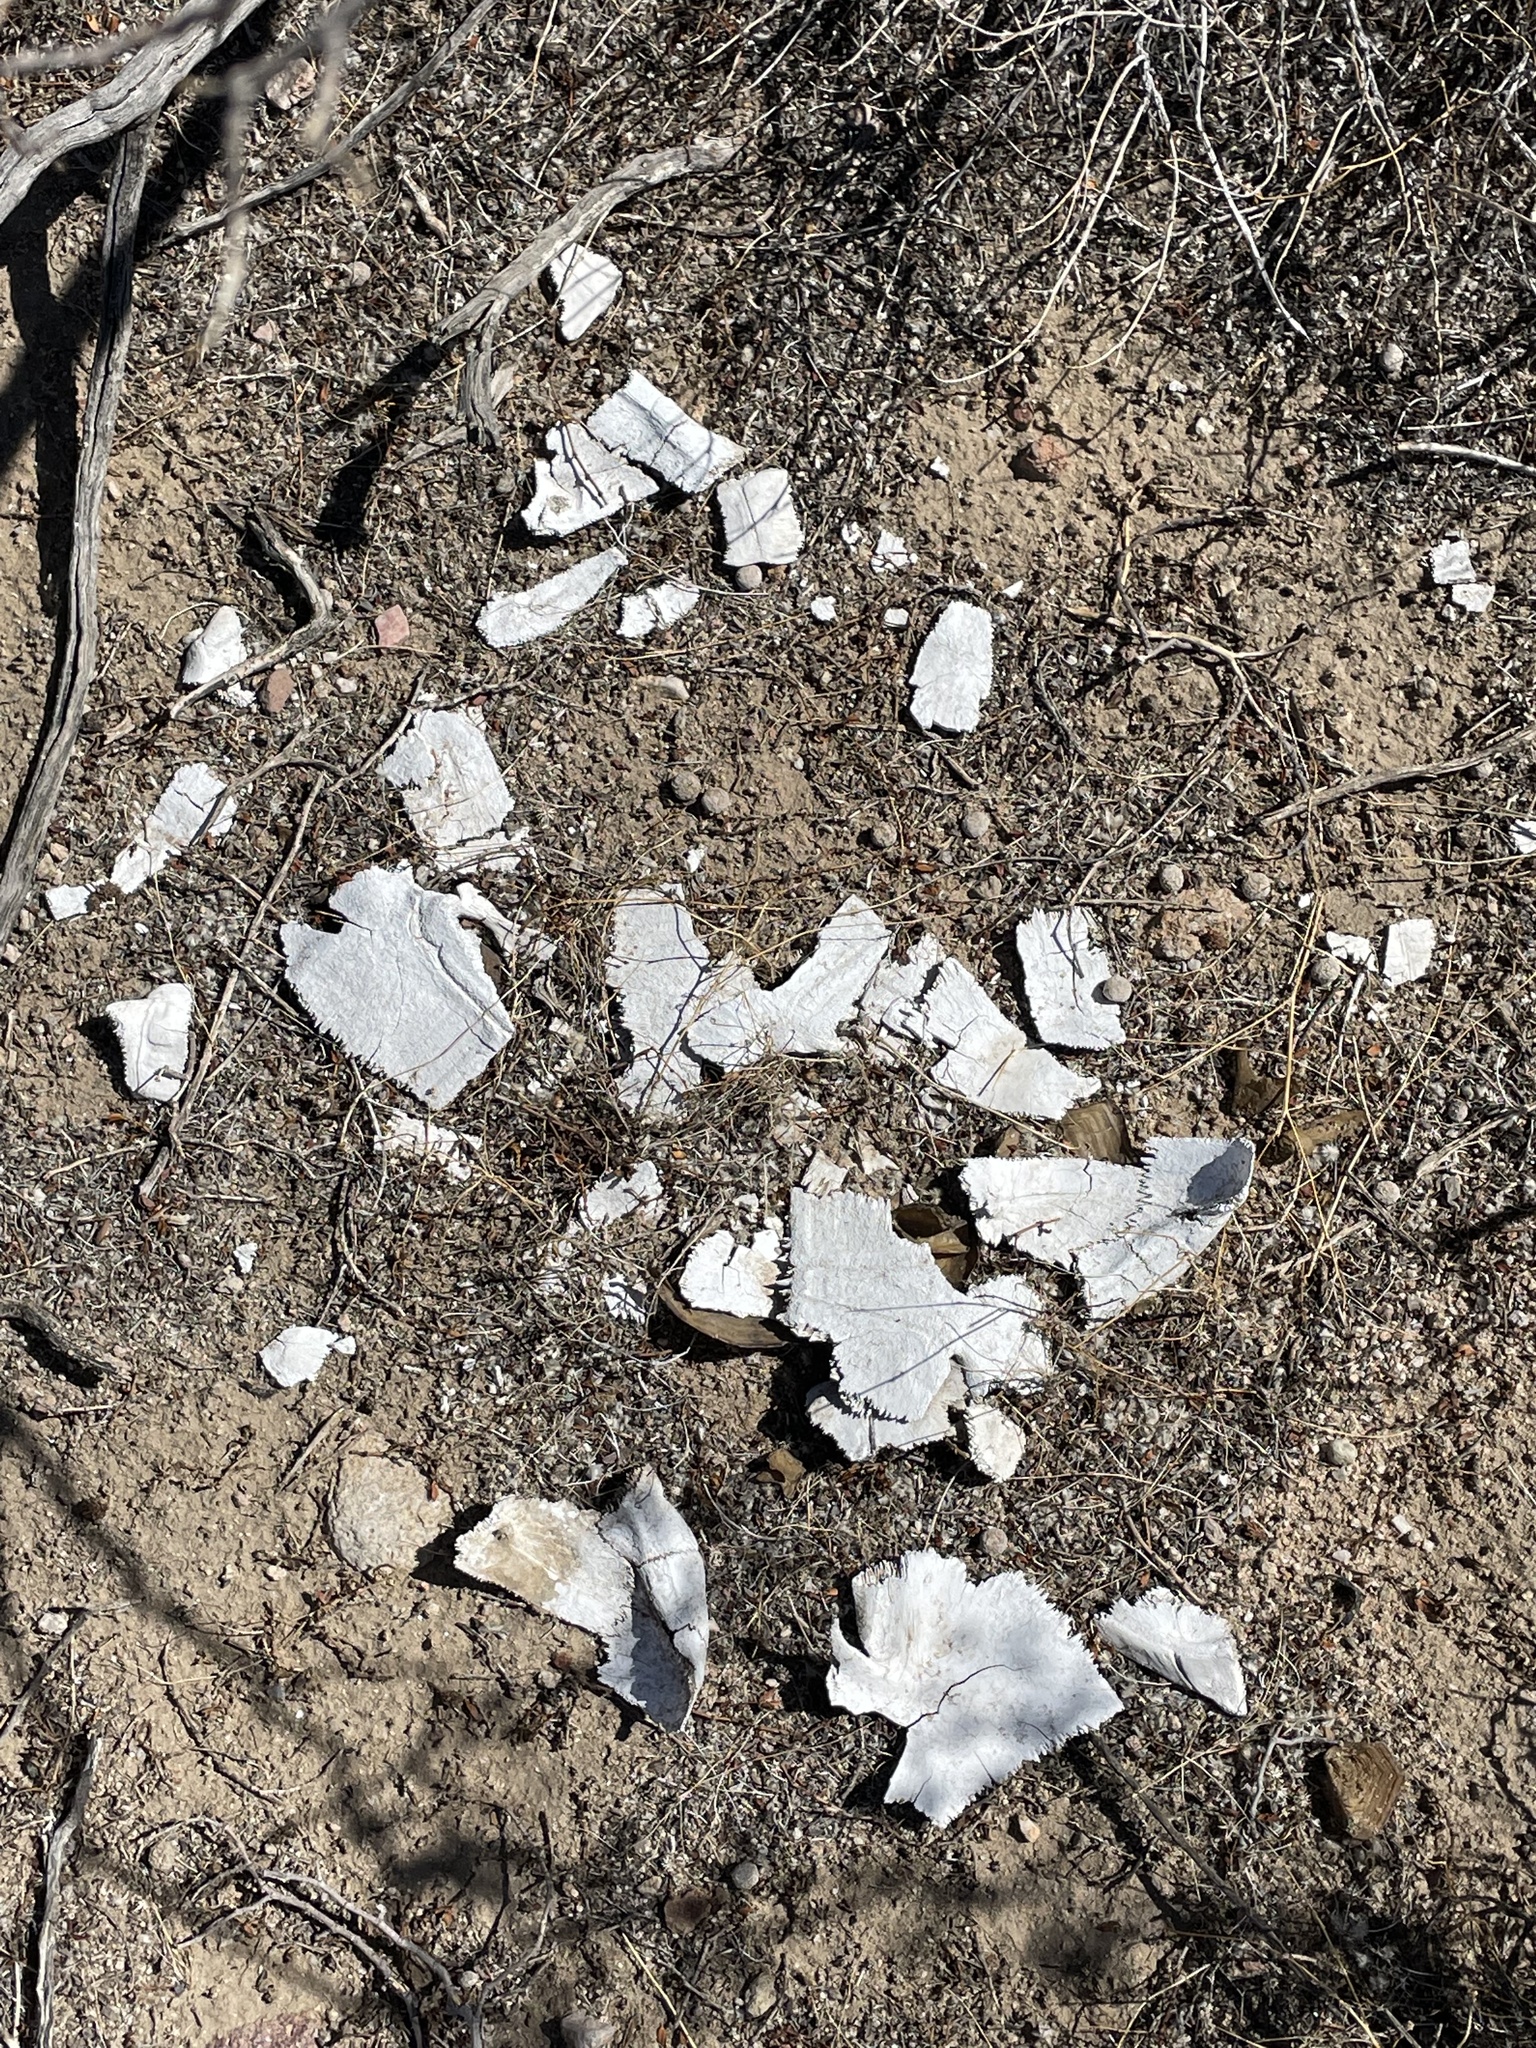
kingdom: Animalia
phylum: Chordata
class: Testudines
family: Testudinidae
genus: Gopherus
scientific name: Gopherus agassizii
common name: Mojave desert tortoise
